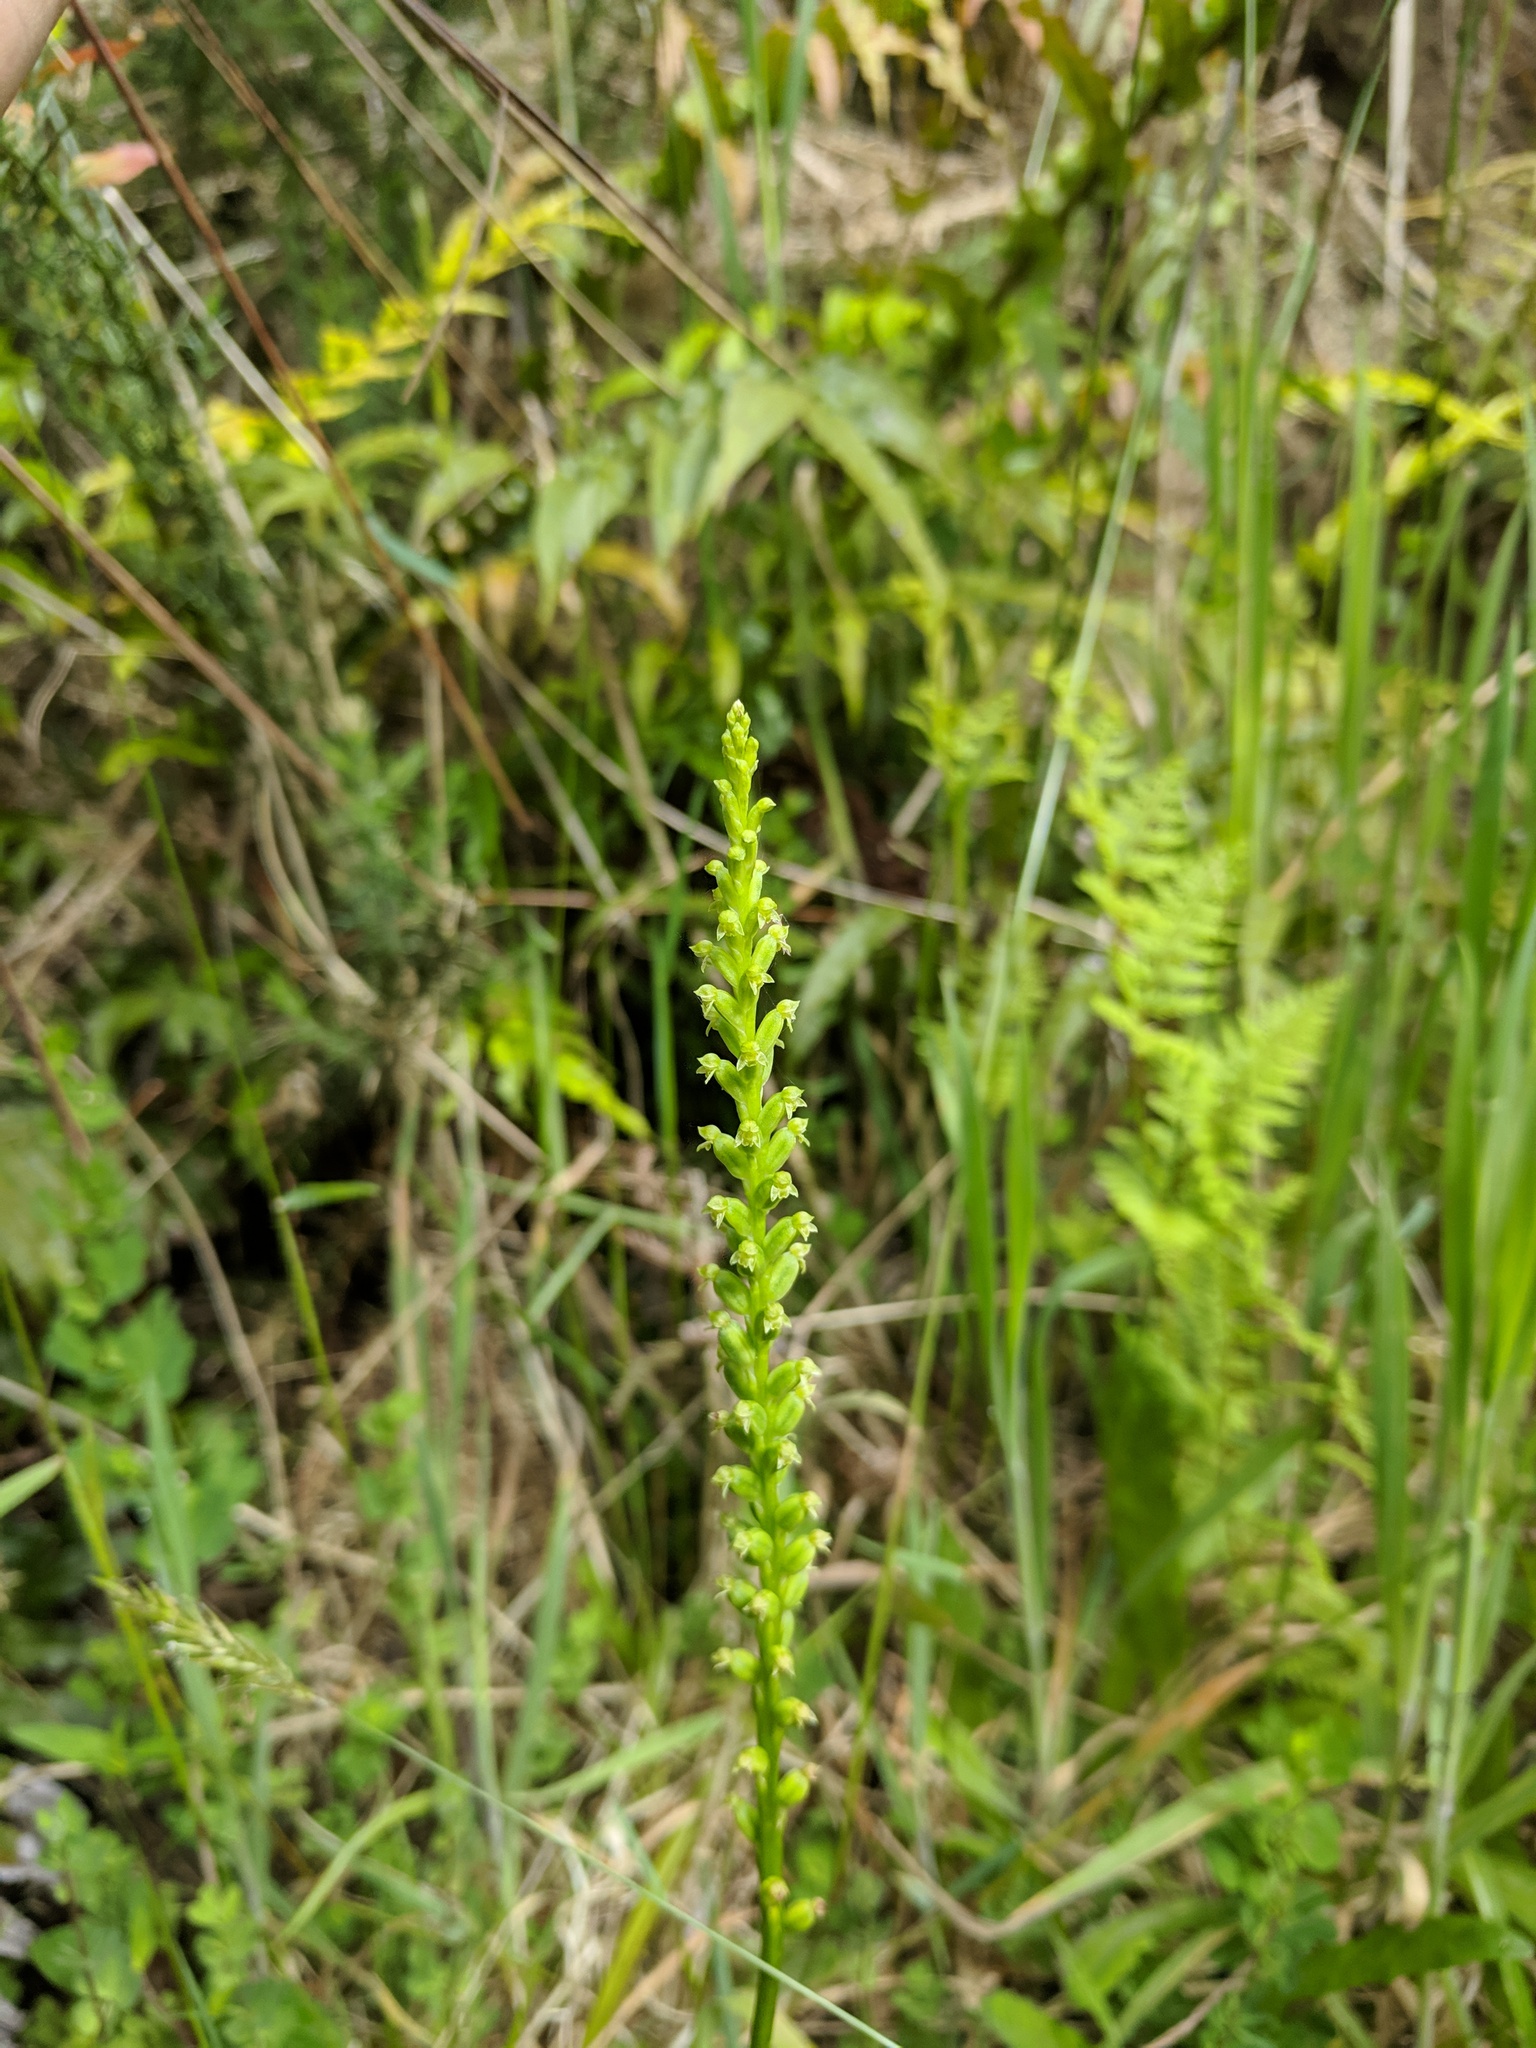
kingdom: Plantae
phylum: Tracheophyta
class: Liliopsida
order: Asparagales
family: Orchidaceae
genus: Microtis
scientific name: Microtis unifolia
